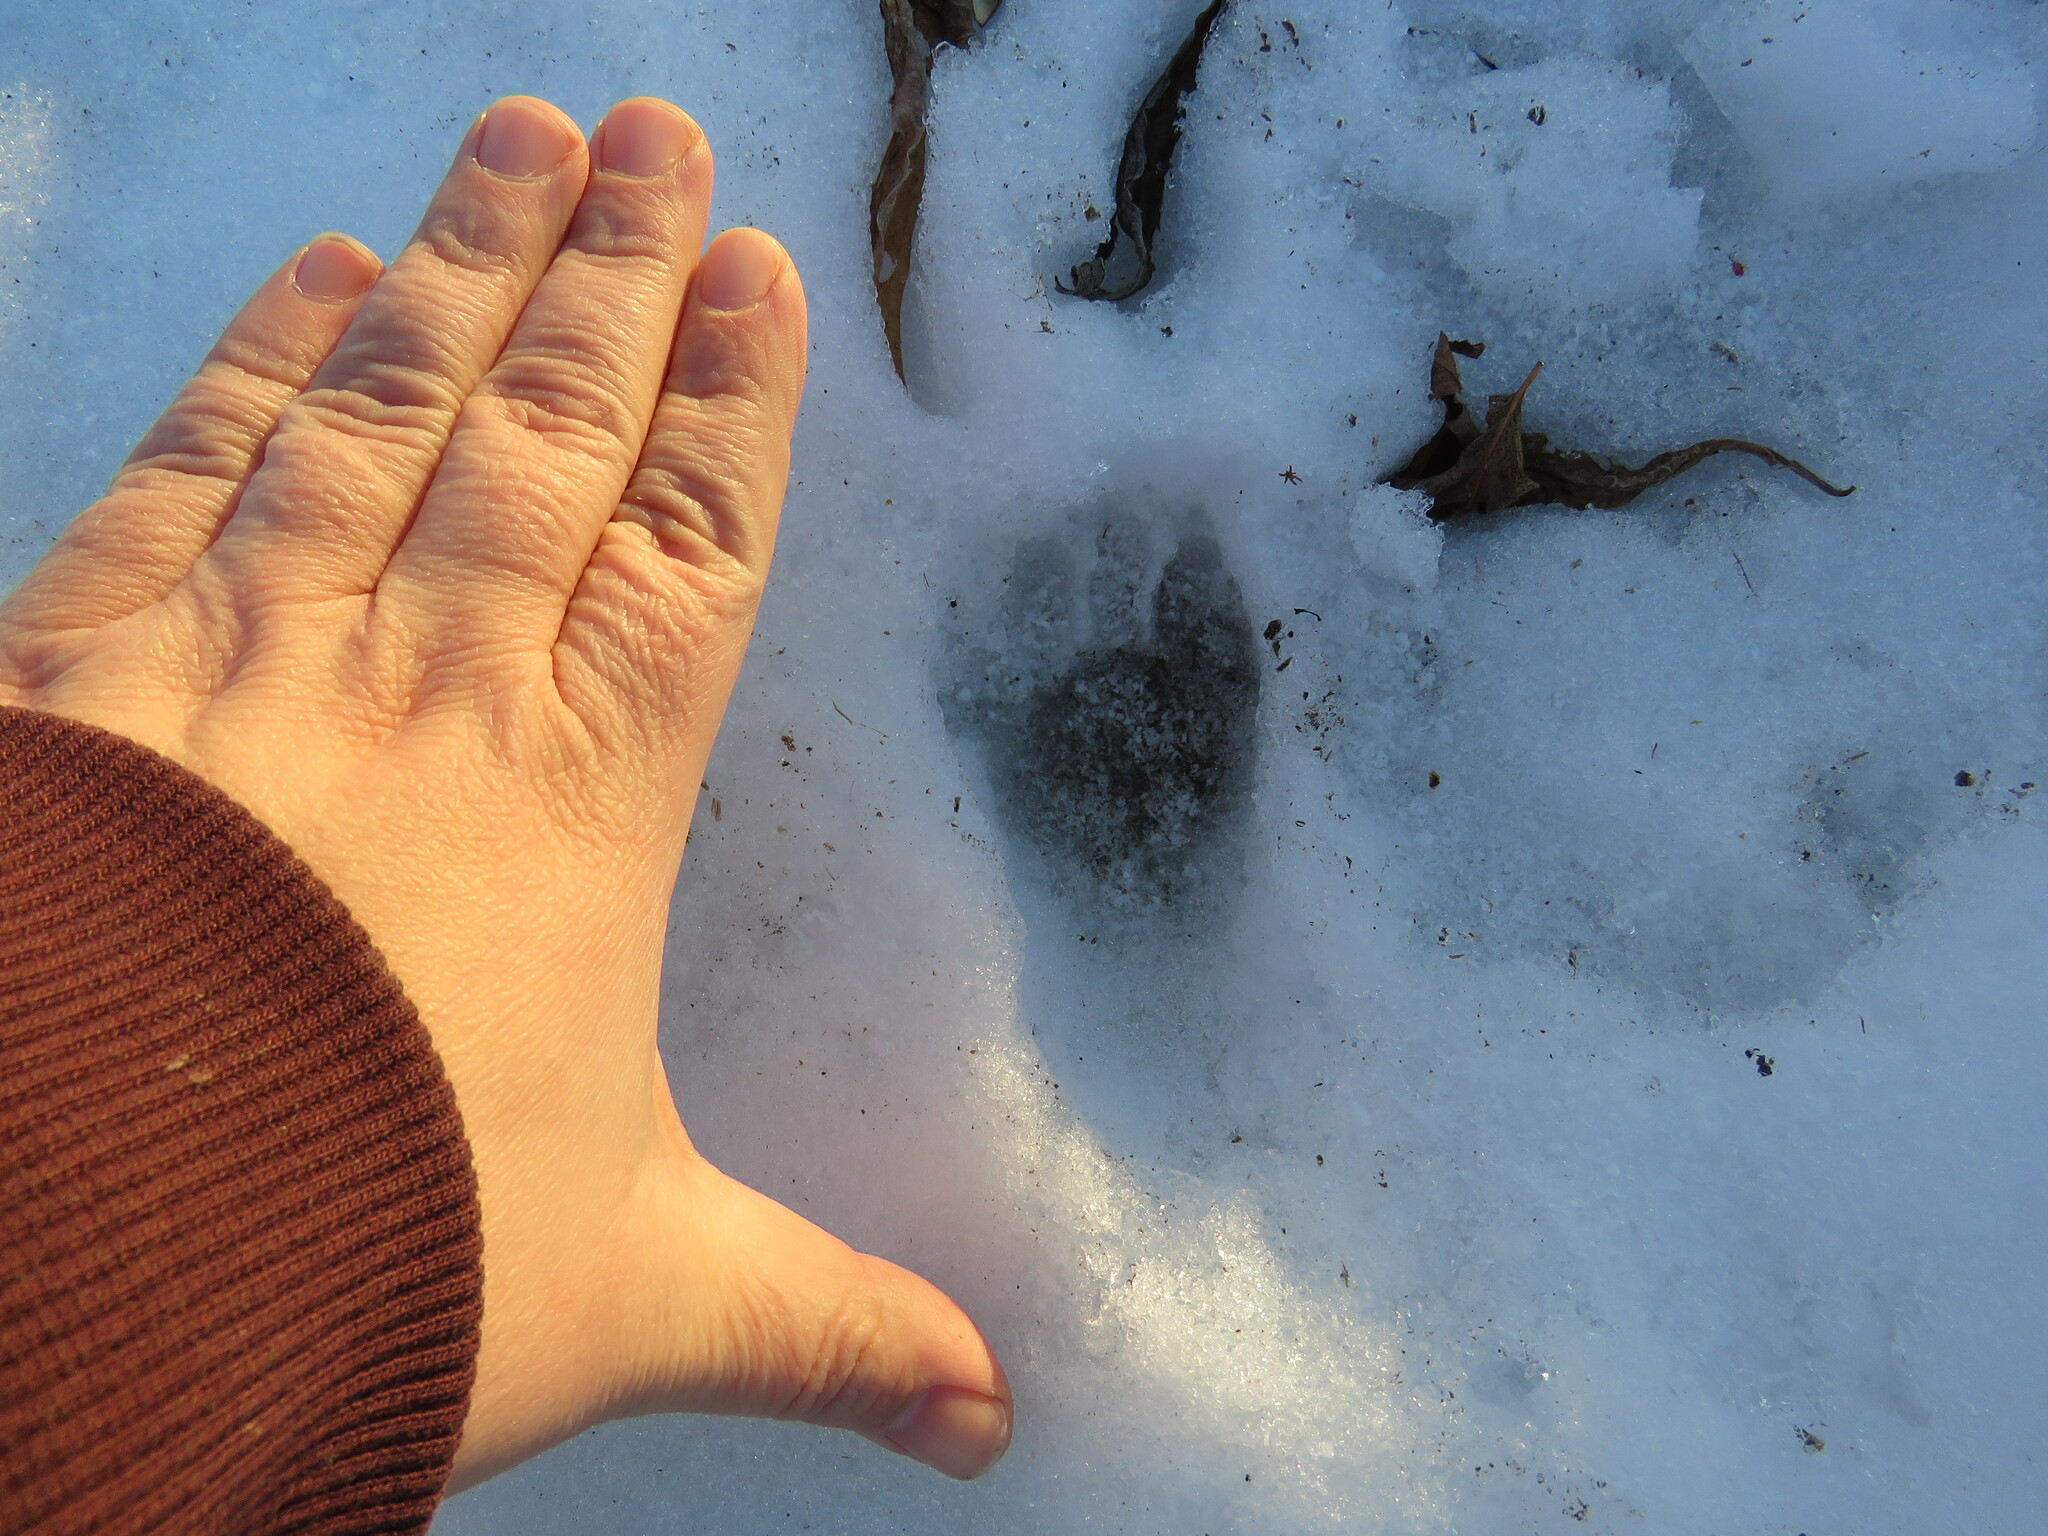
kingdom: Animalia
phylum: Chordata
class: Mammalia
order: Carnivora
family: Procyonidae
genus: Procyon
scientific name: Procyon lotor
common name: Raccoon
